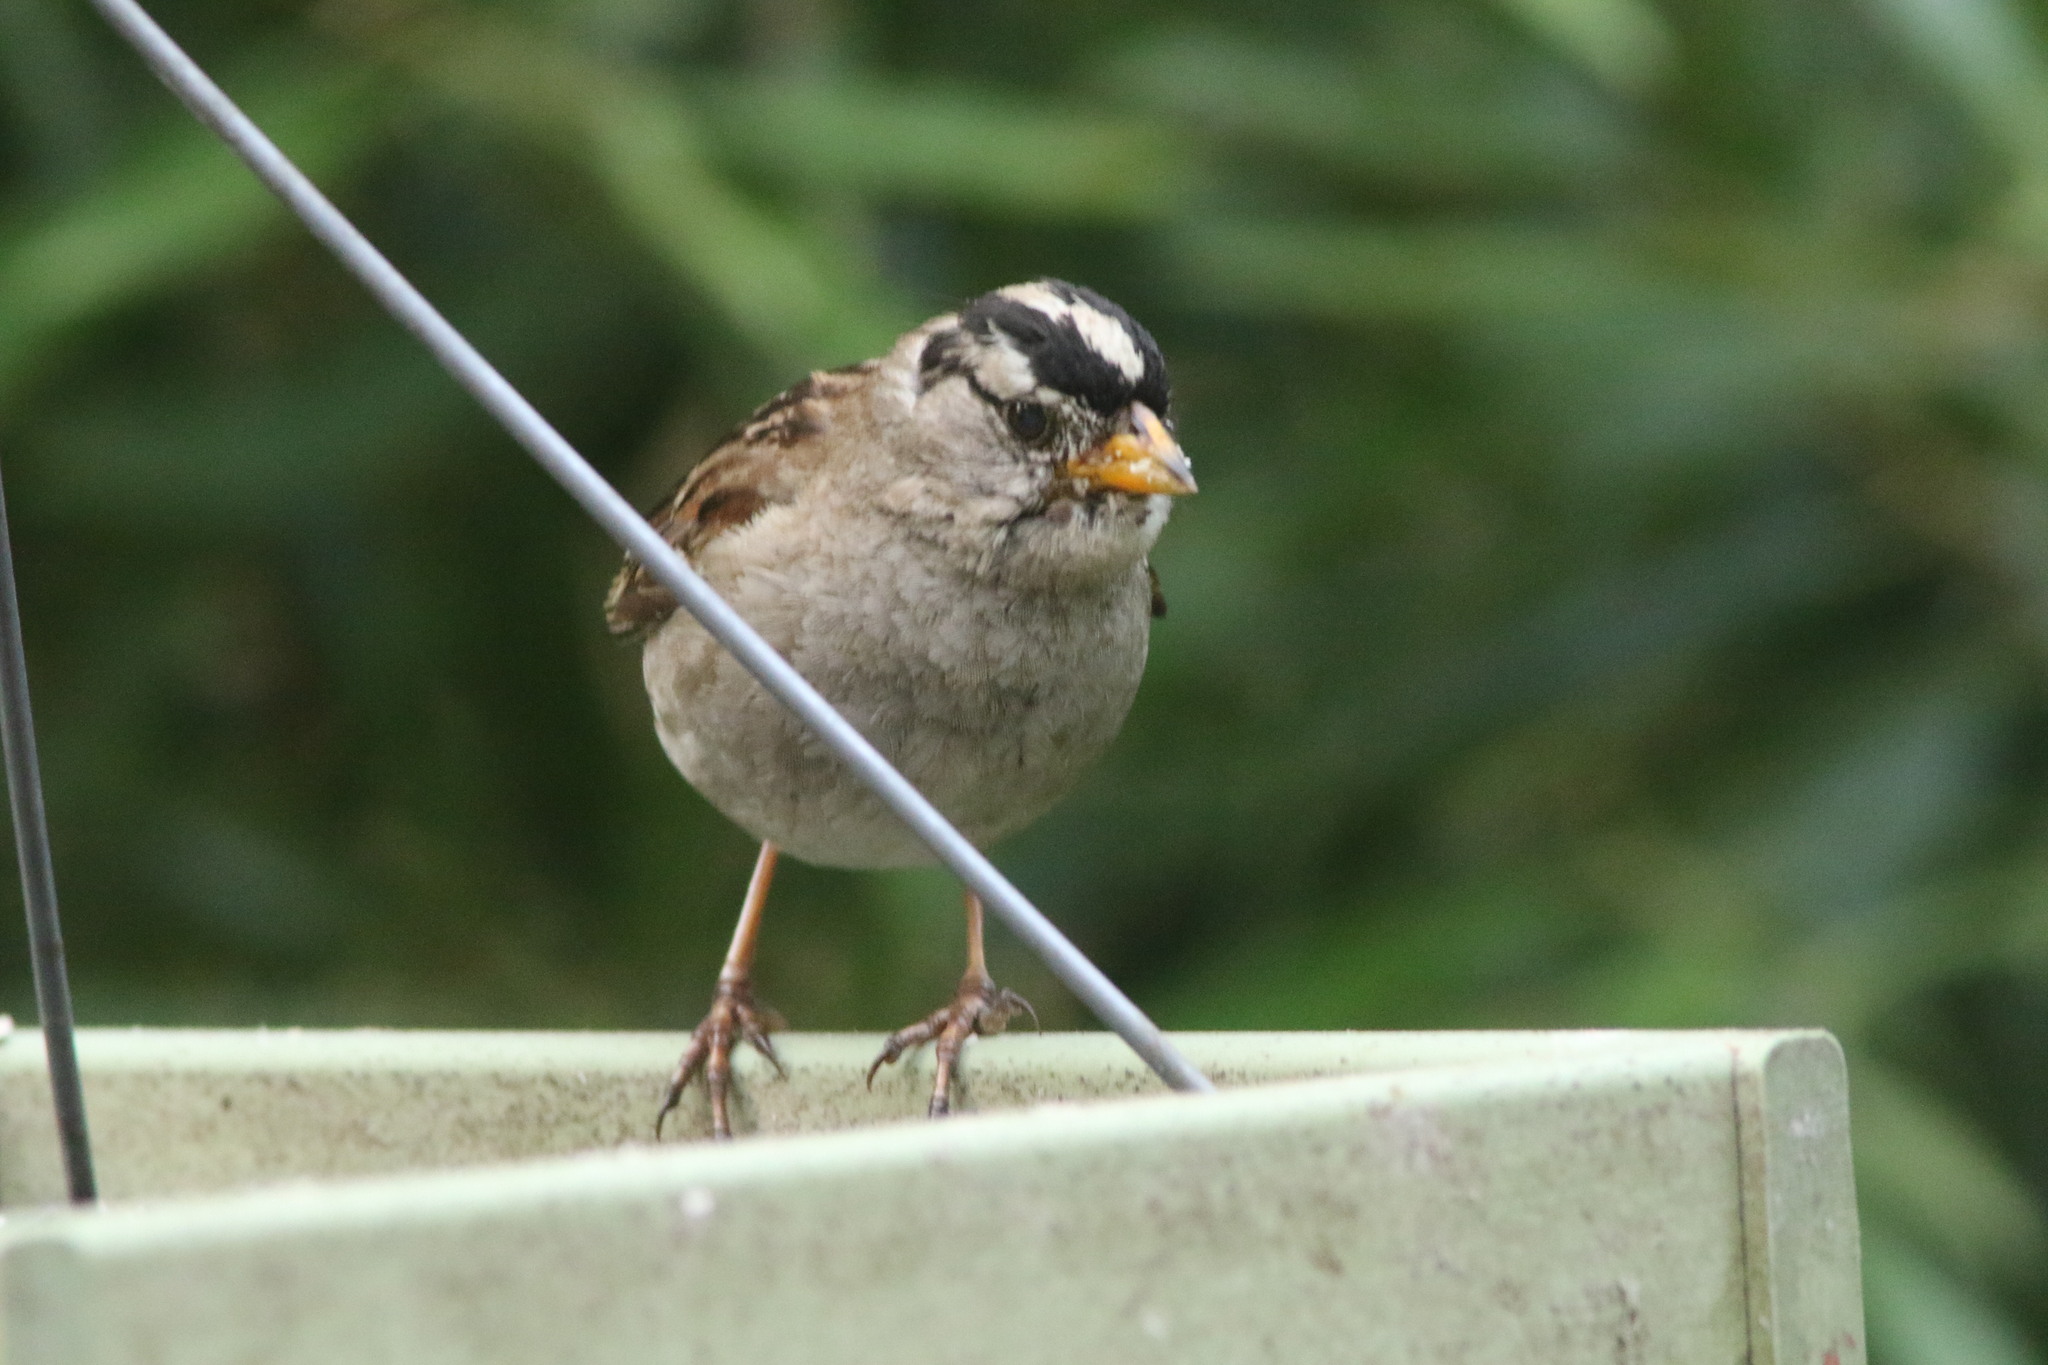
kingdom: Animalia
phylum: Chordata
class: Aves
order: Passeriformes
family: Passerellidae
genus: Zonotrichia
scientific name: Zonotrichia leucophrys
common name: White-crowned sparrow
